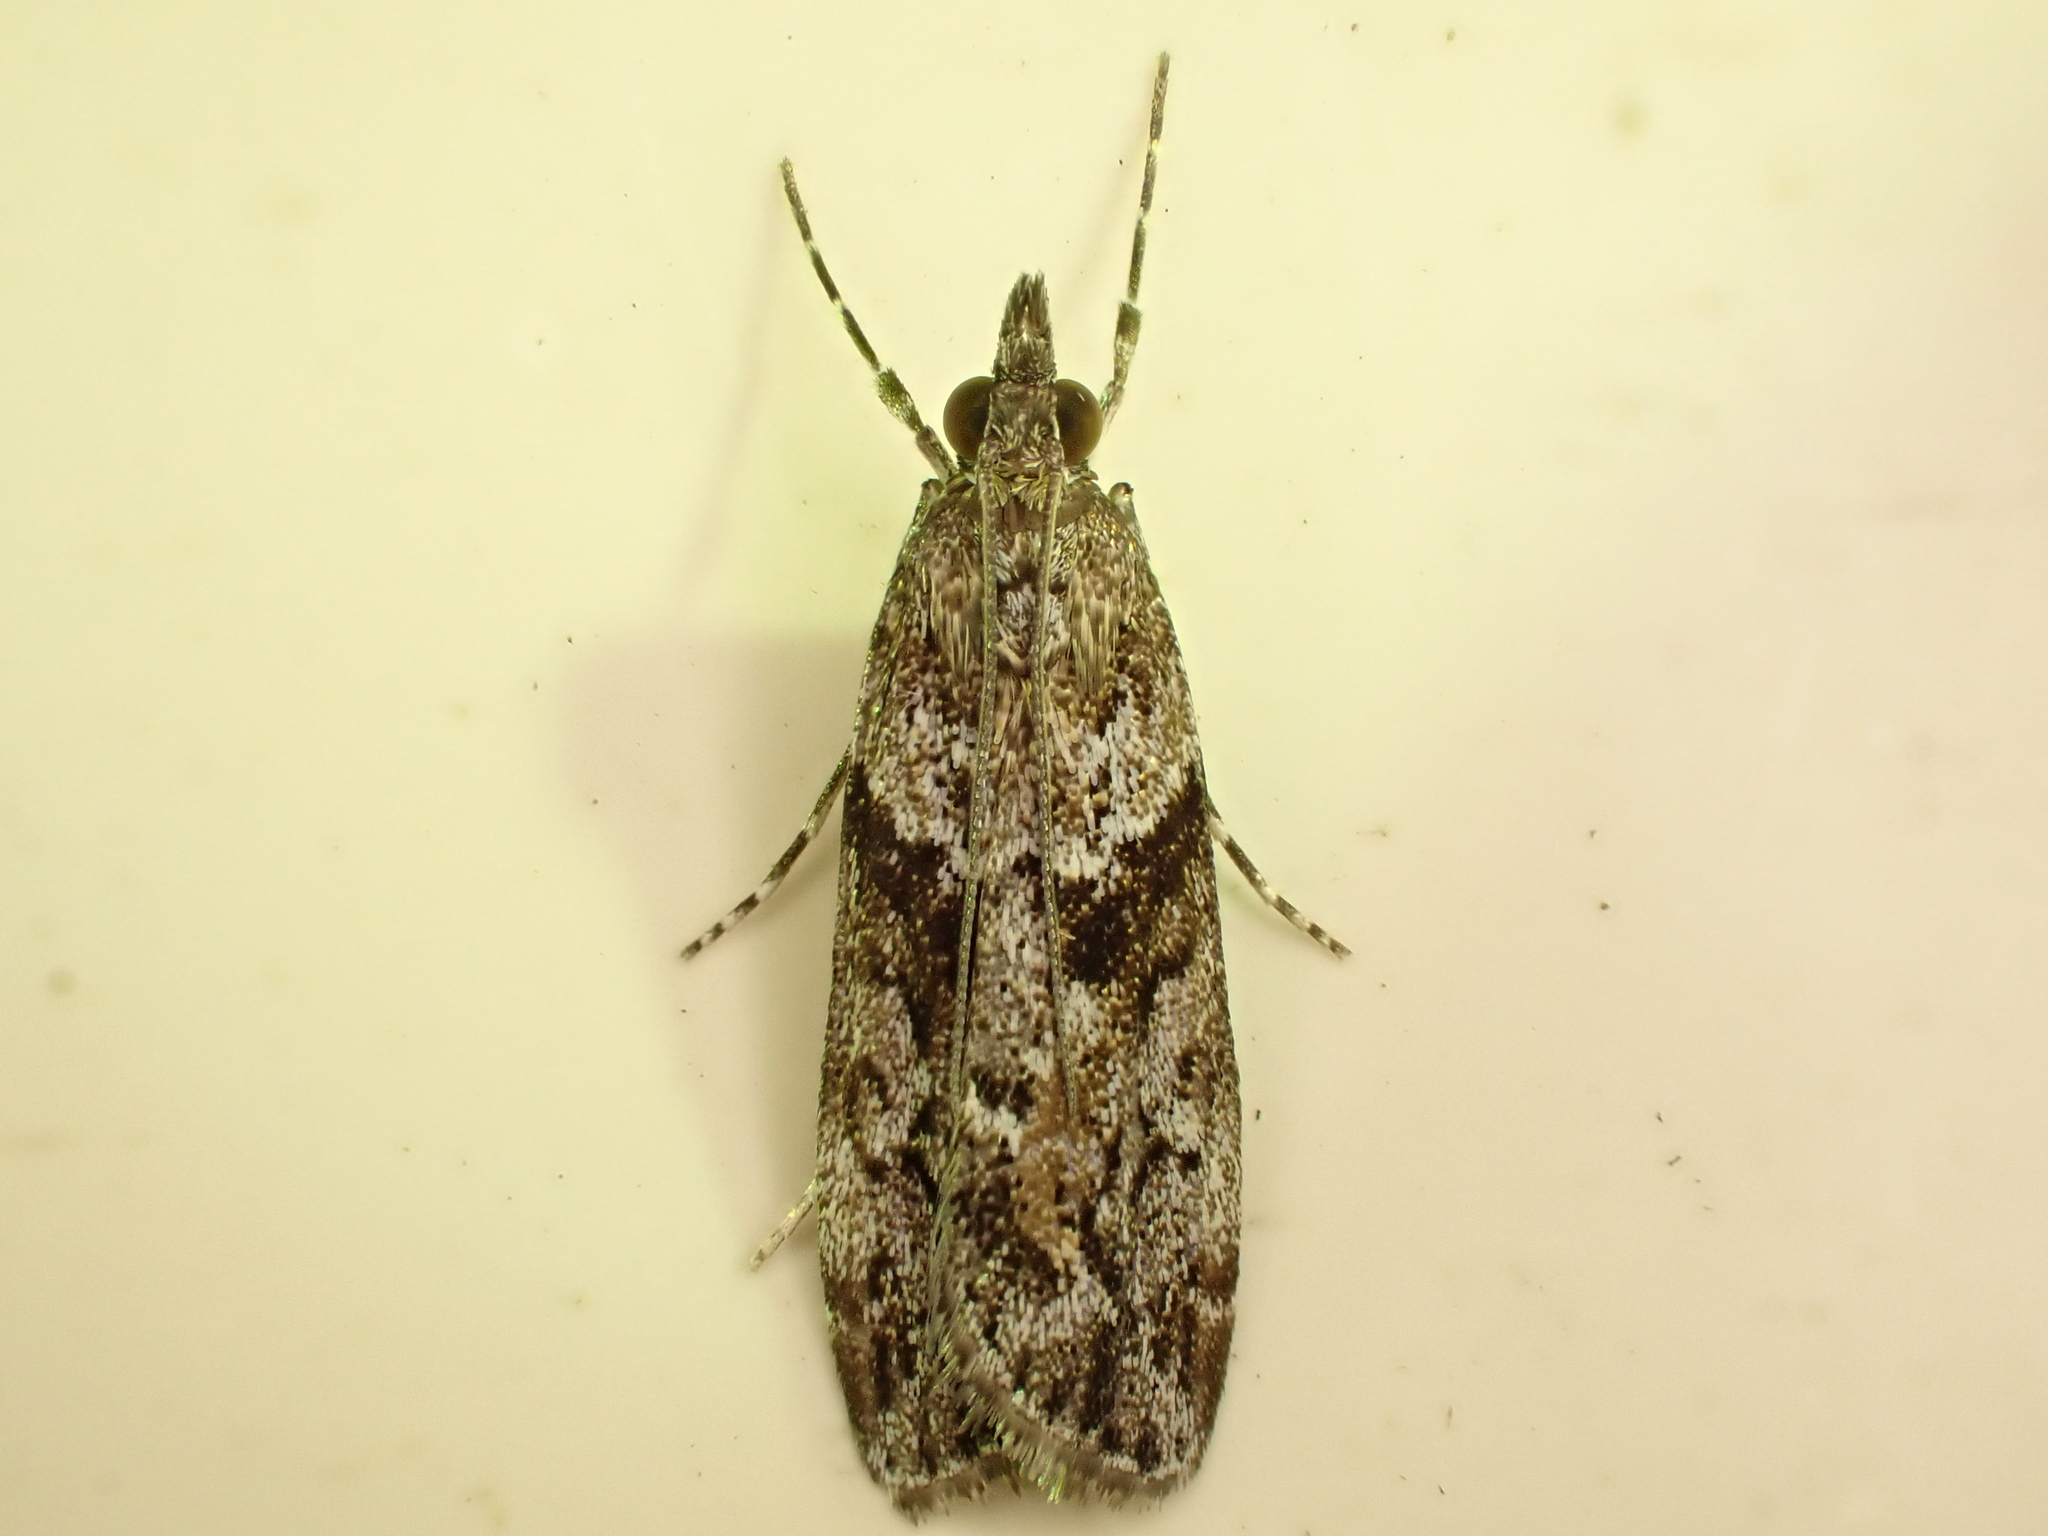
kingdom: Animalia
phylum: Arthropoda
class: Insecta
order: Lepidoptera
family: Crambidae
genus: Eudonia
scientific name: Eudonia submarginalis
